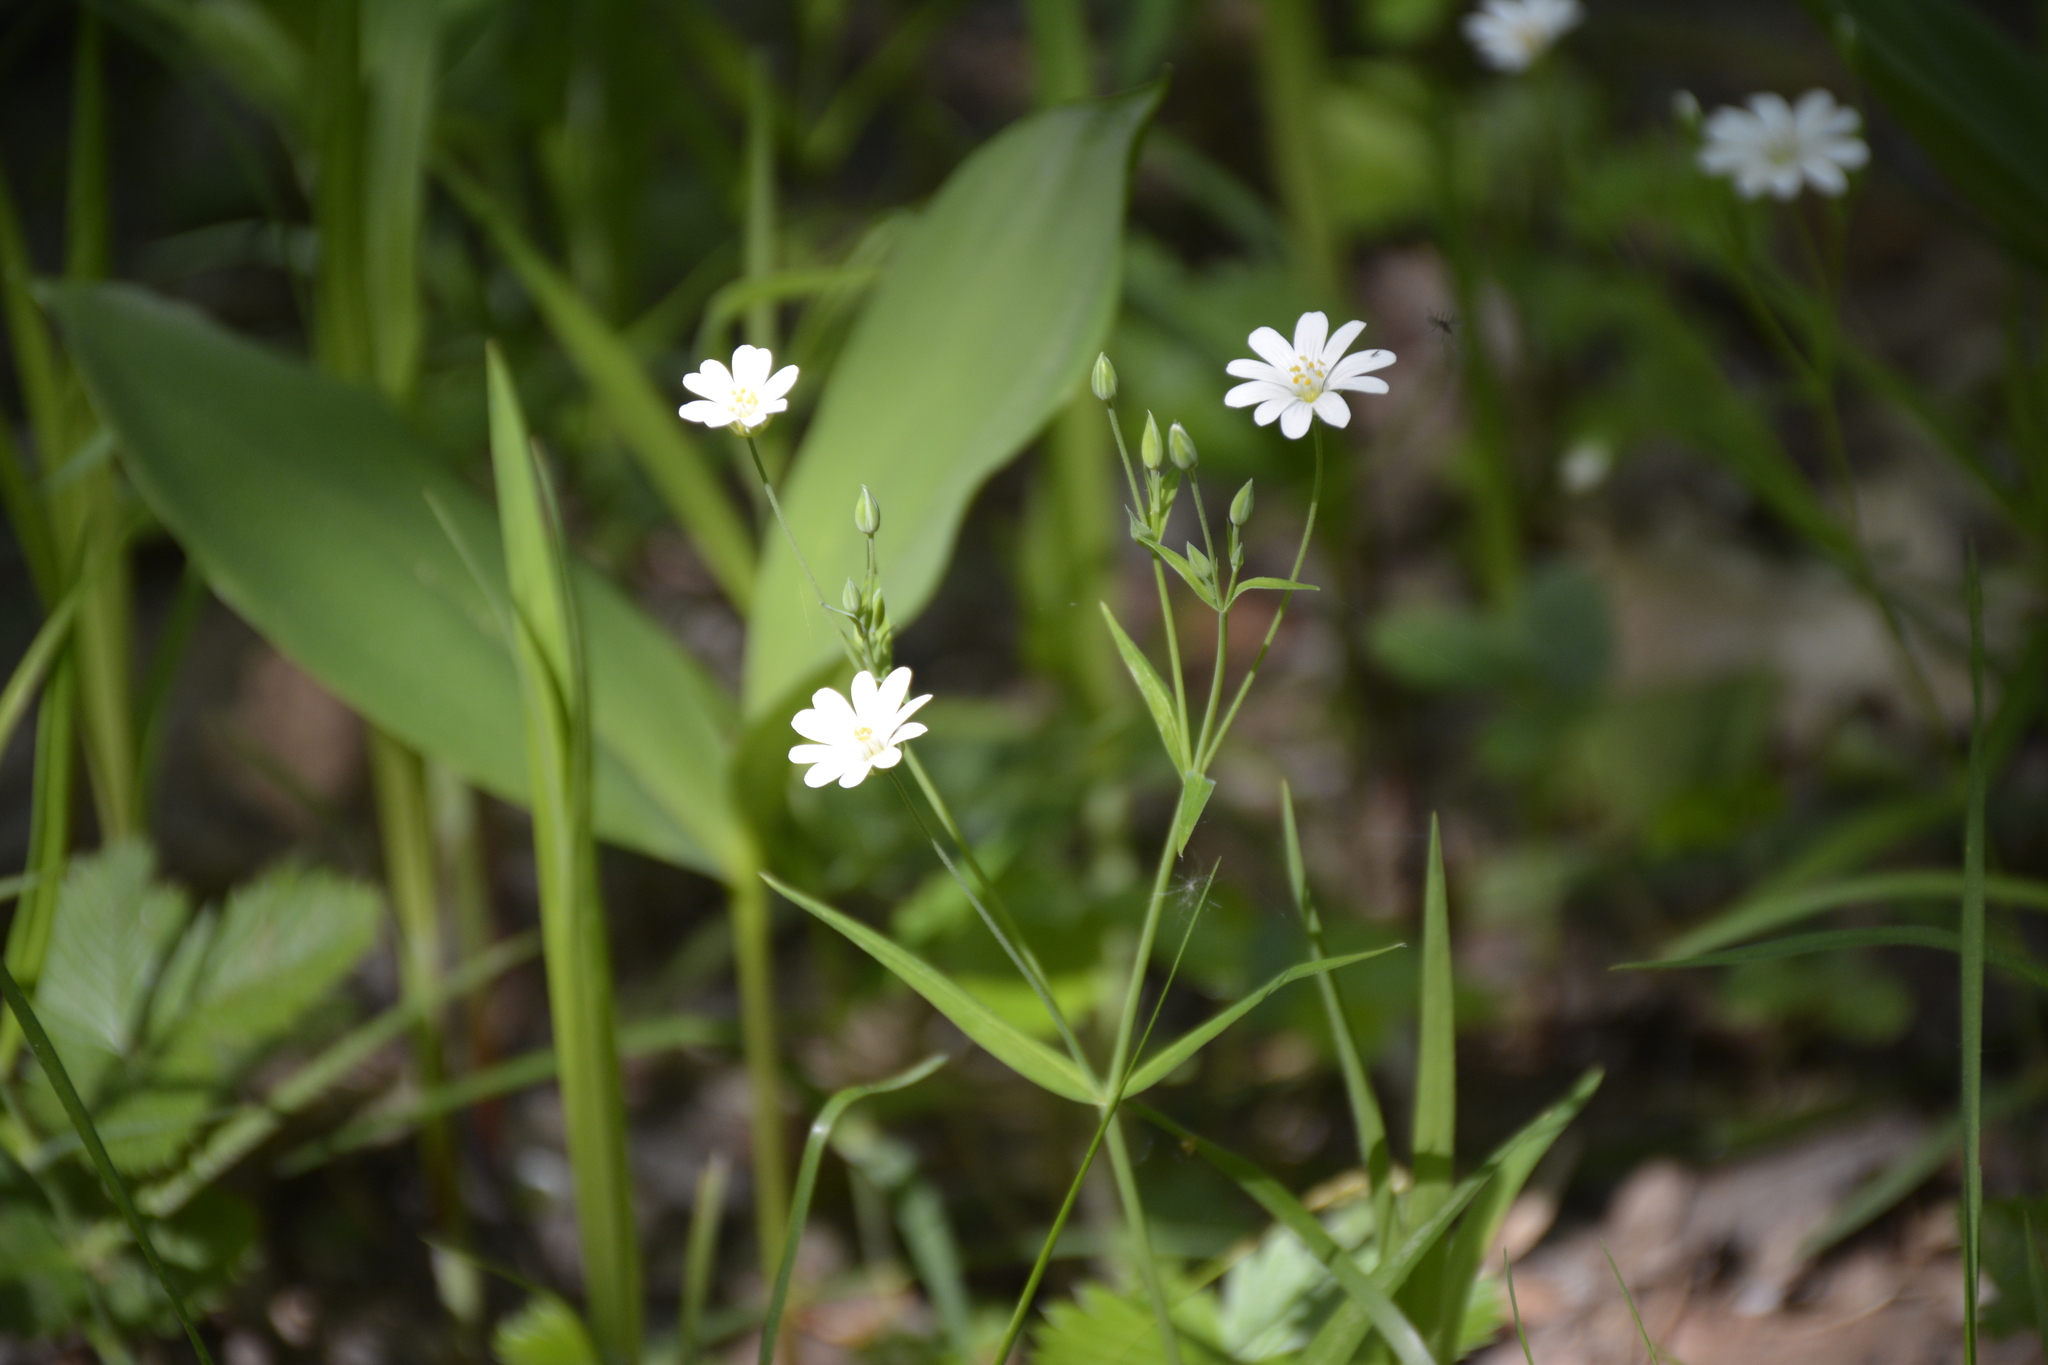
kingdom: Plantae
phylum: Tracheophyta
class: Magnoliopsida
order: Caryophyllales
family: Caryophyllaceae
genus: Rabelera
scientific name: Rabelera holostea
